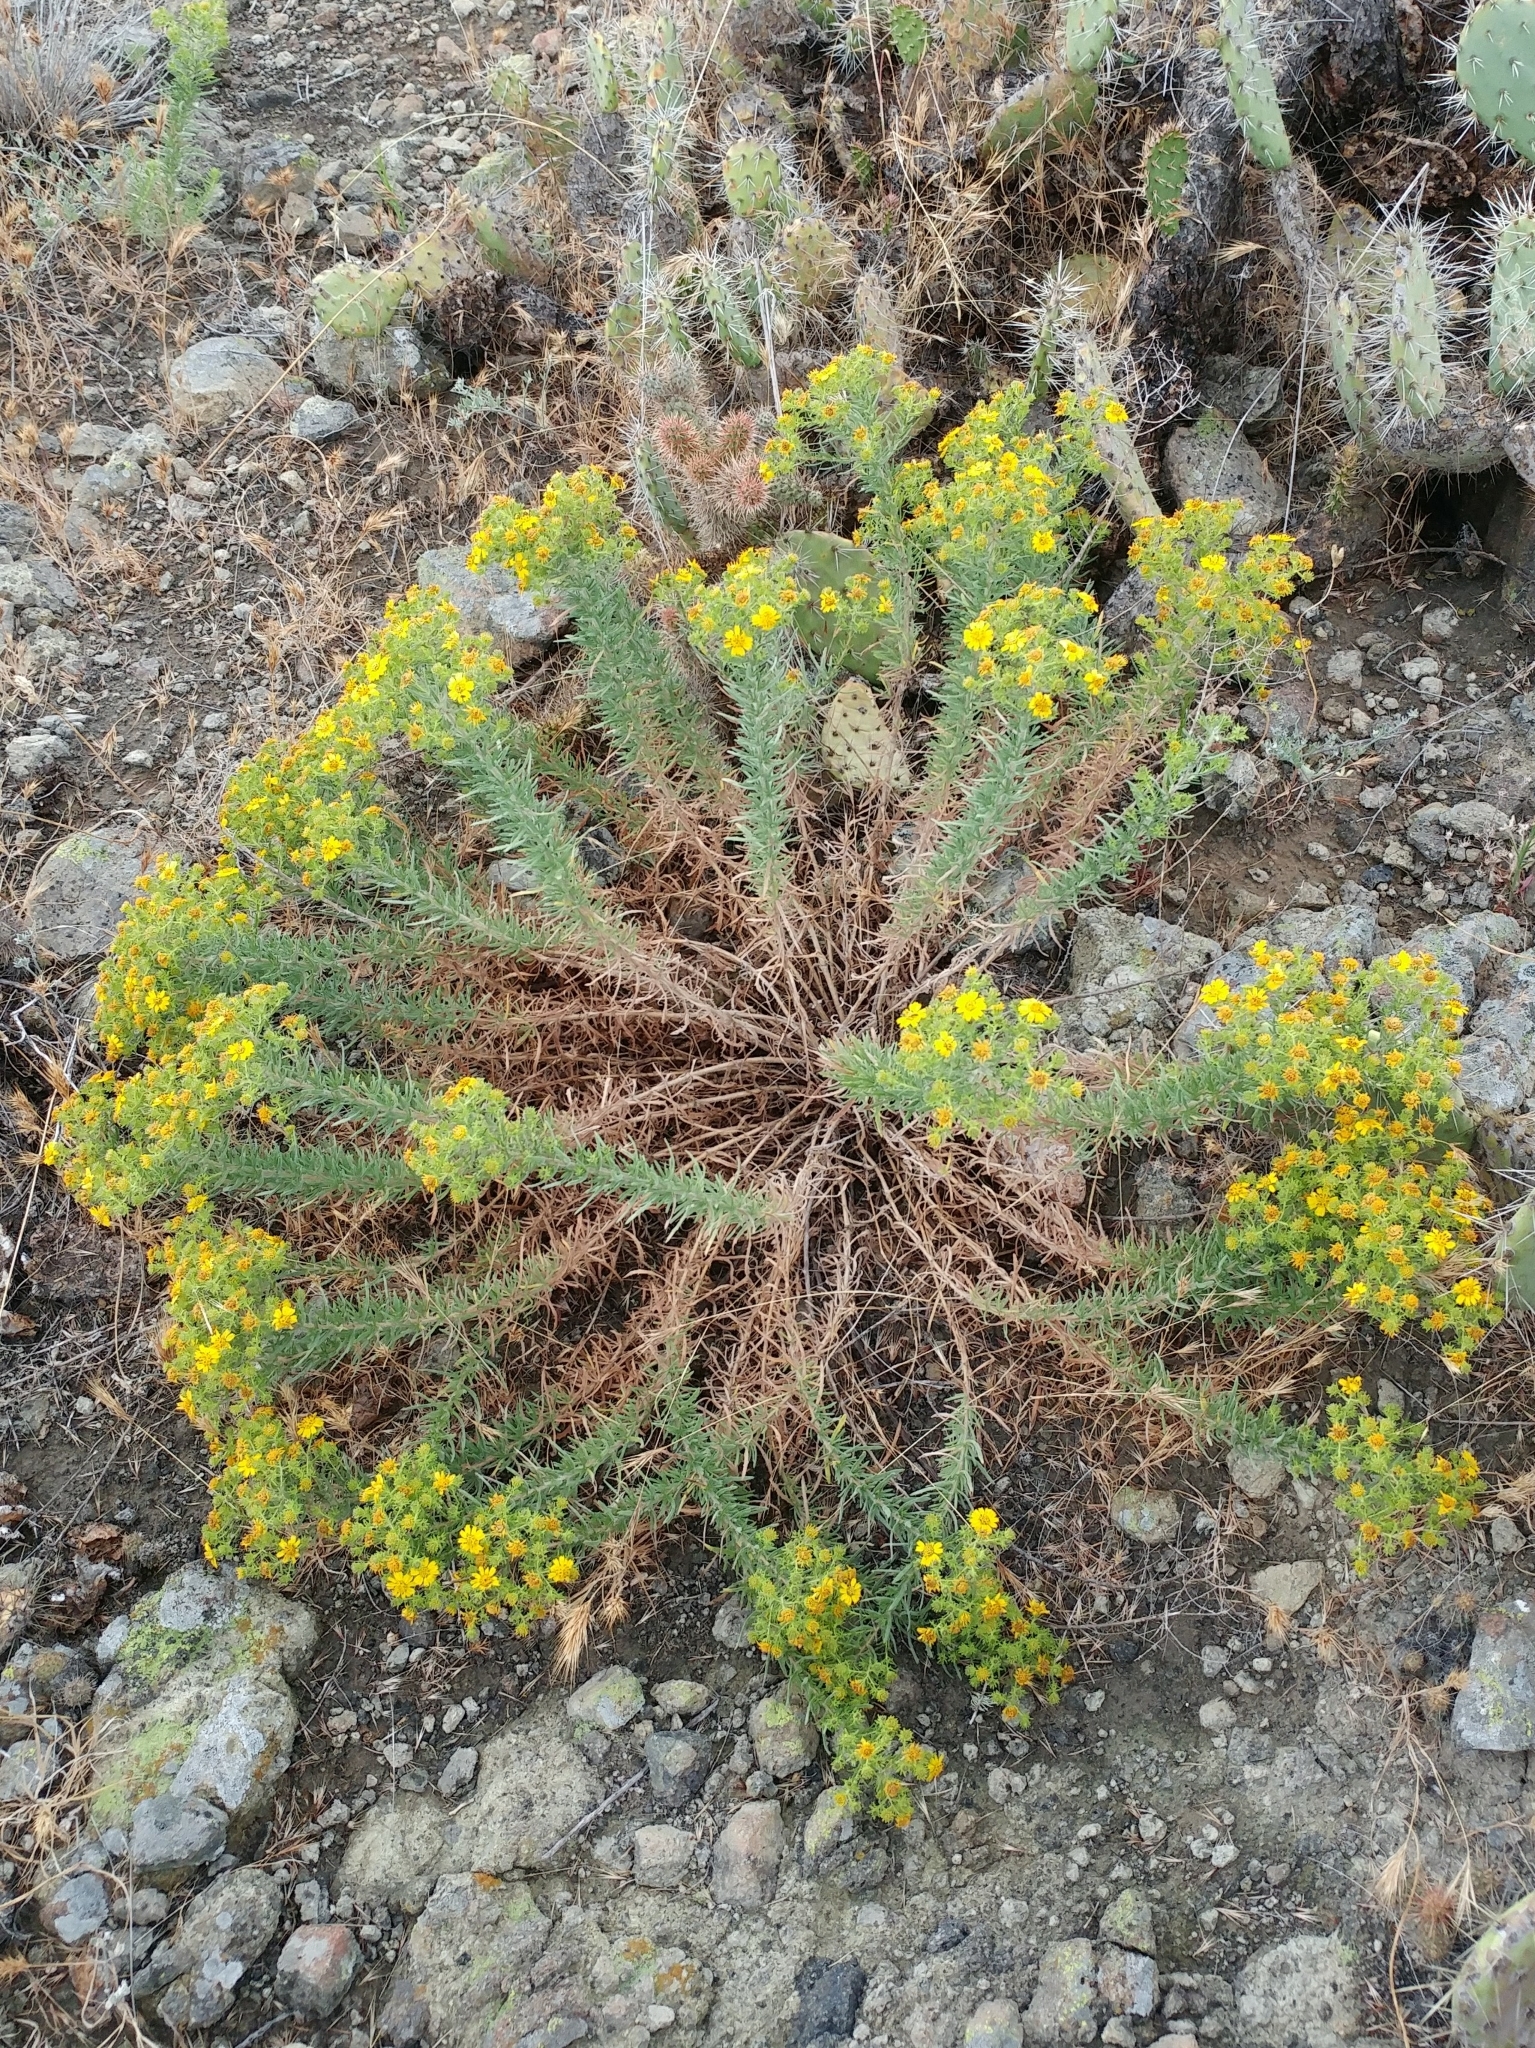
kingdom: Plantae
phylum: Tracheophyta
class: Magnoliopsida
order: Asterales
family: Asteraceae
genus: Deinandra
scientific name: Deinandra clementina
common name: Island tarplant
